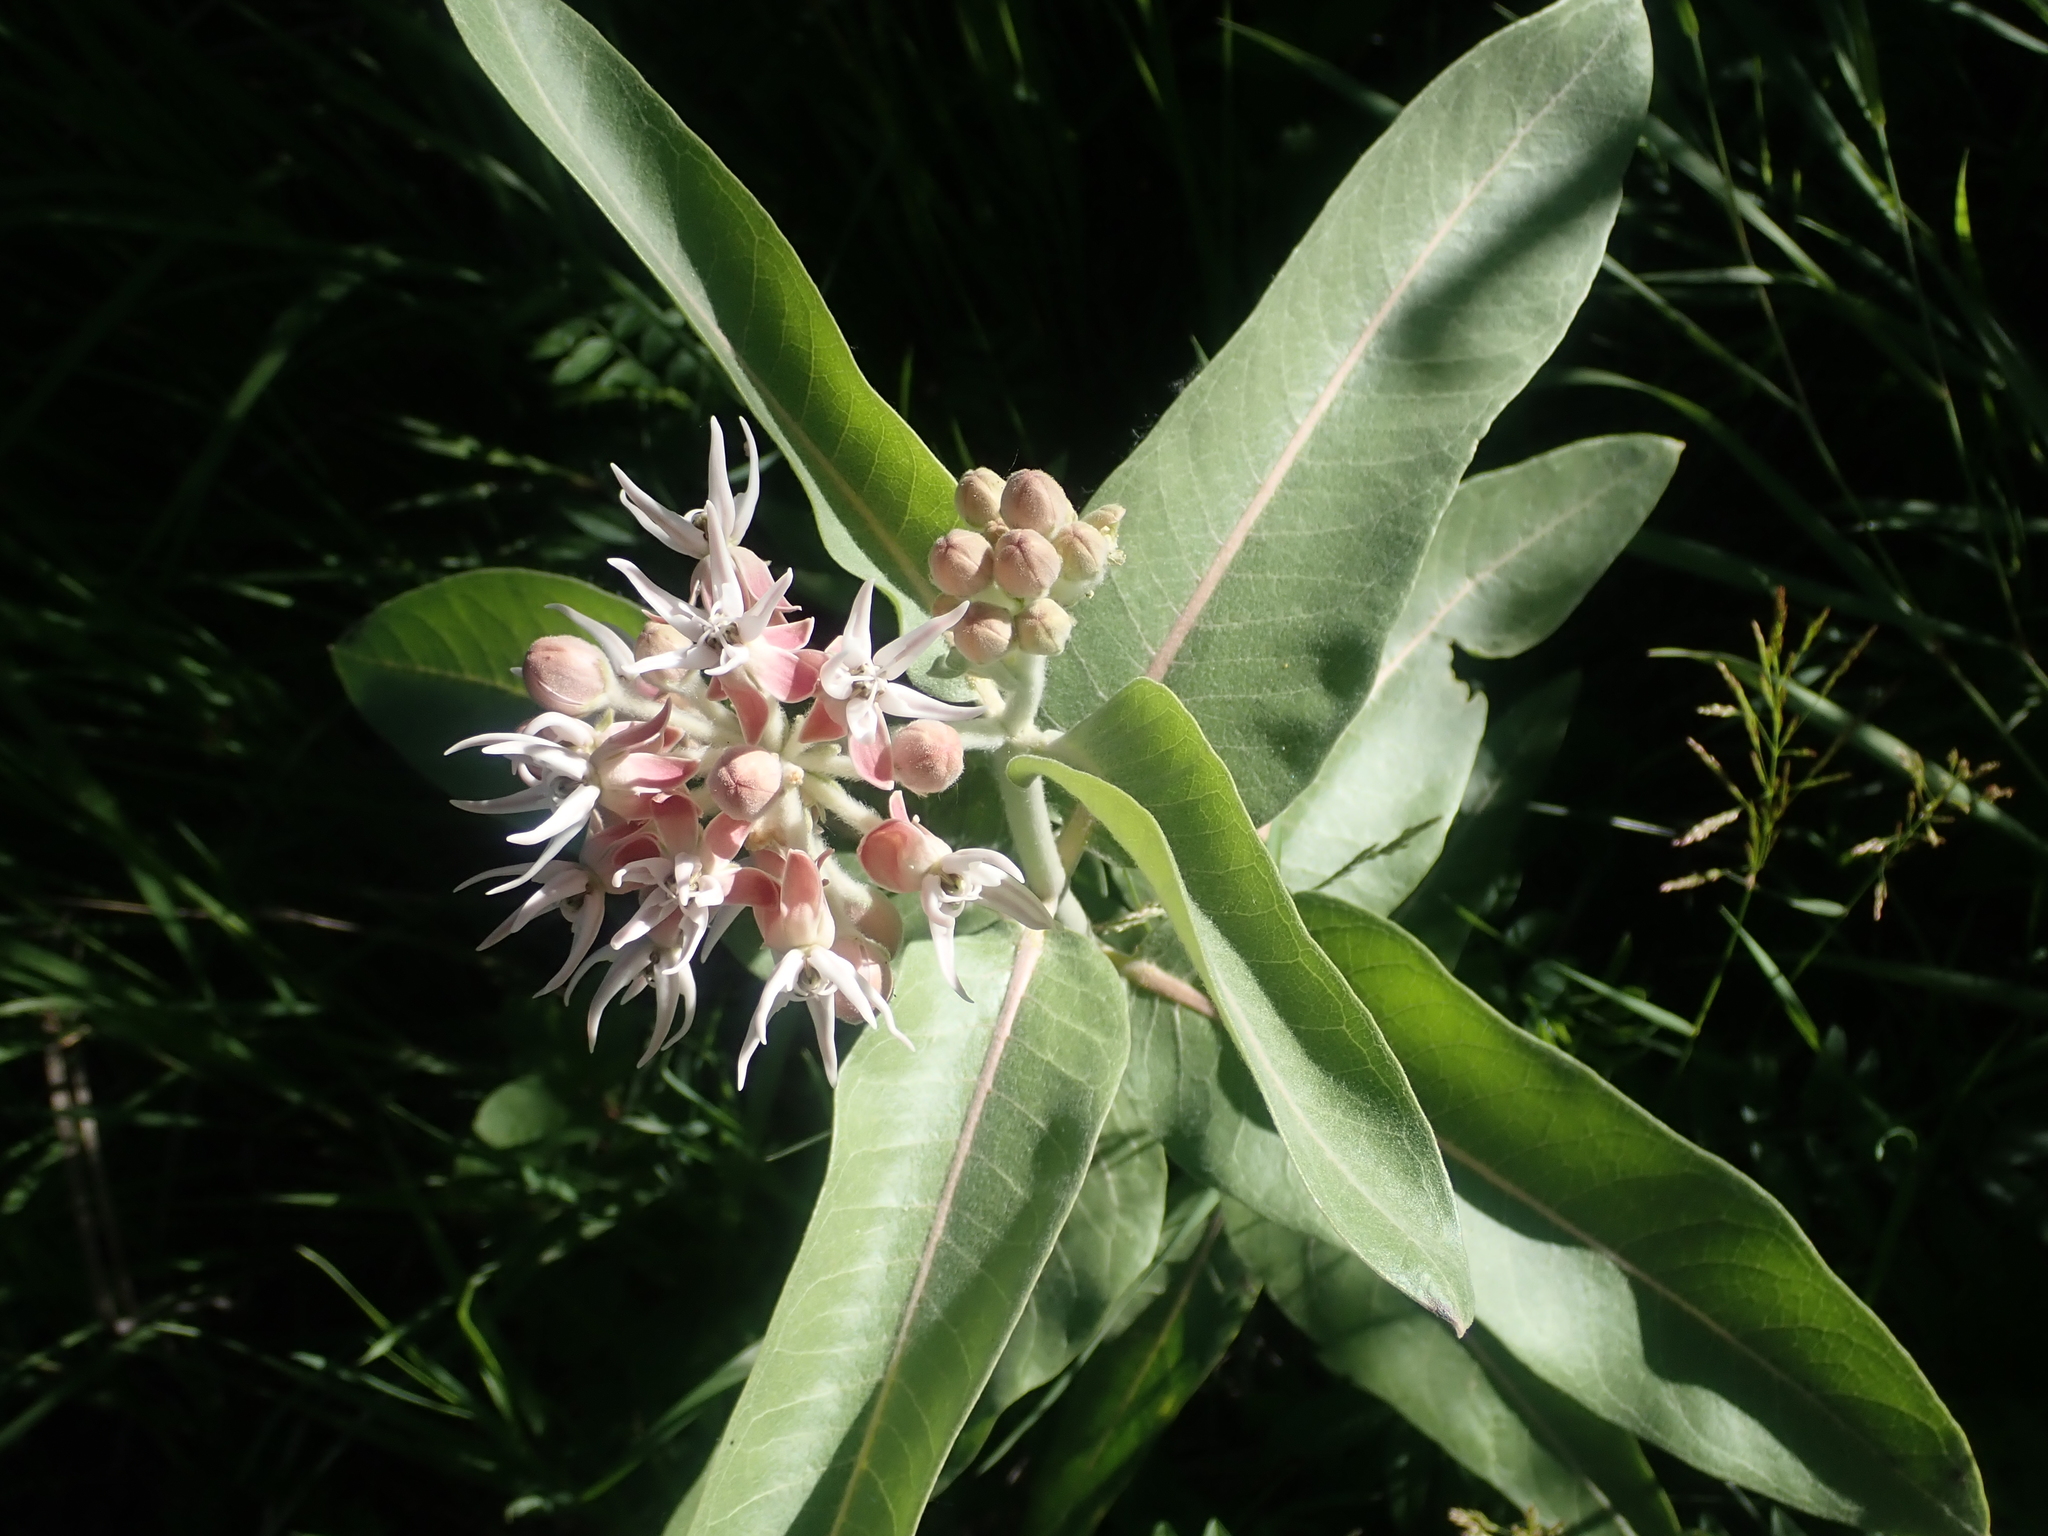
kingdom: Plantae
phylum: Tracheophyta
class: Magnoliopsida
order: Gentianales
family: Apocynaceae
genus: Asclepias
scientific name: Asclepias speciosa
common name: Showy milkweed
